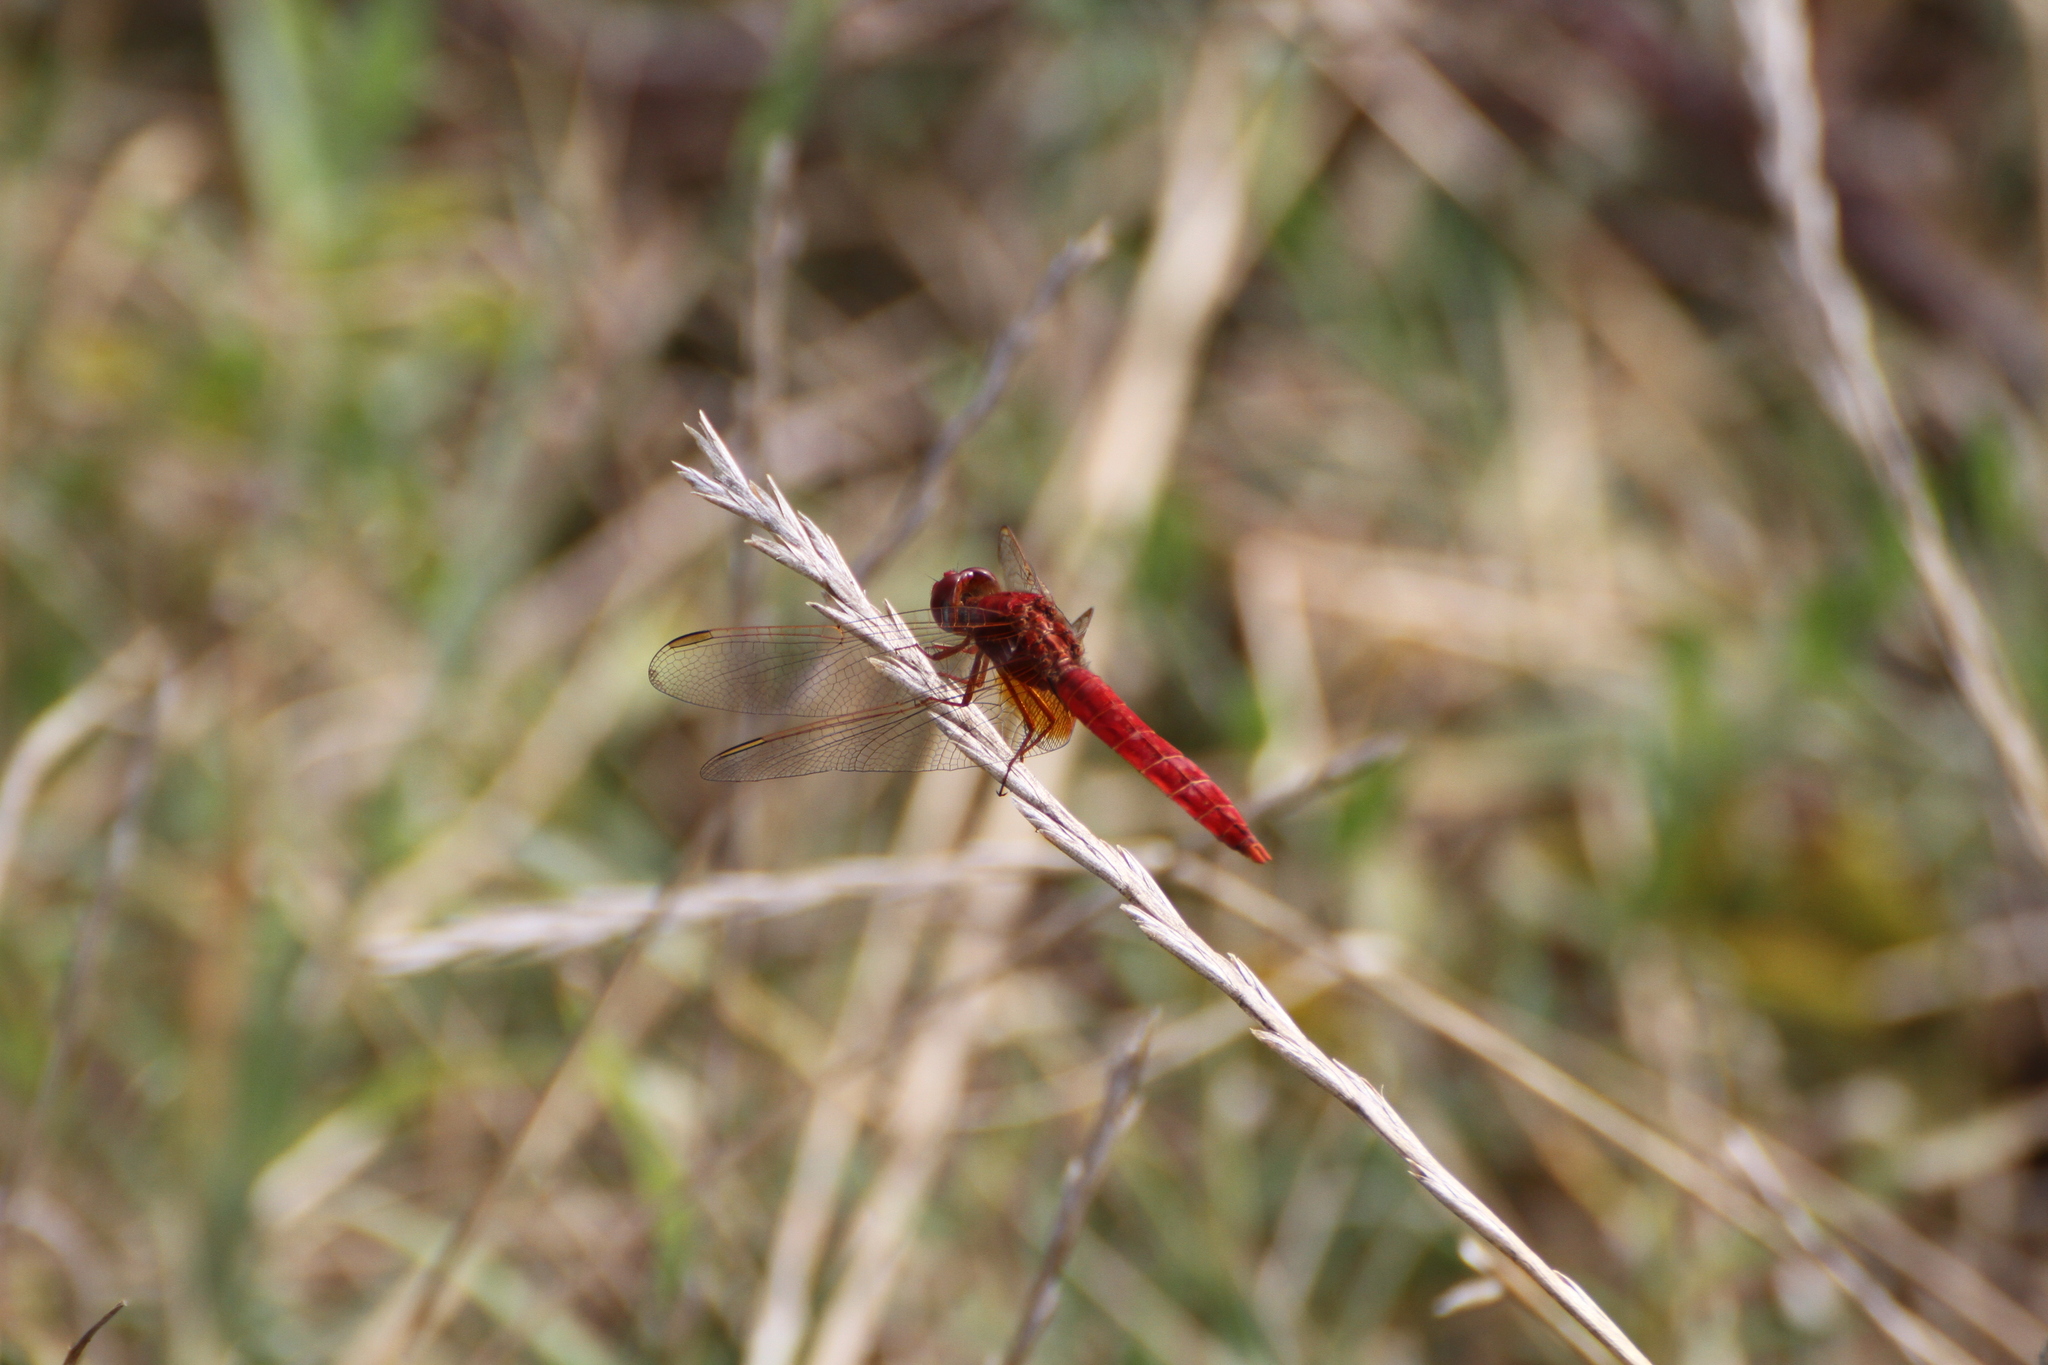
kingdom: Animalia
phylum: Arthropoda
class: Insecta
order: Odonata
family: Libellulidae
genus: Crocothemis
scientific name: Crocothemis erythraea
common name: Scarlet dragonfly
